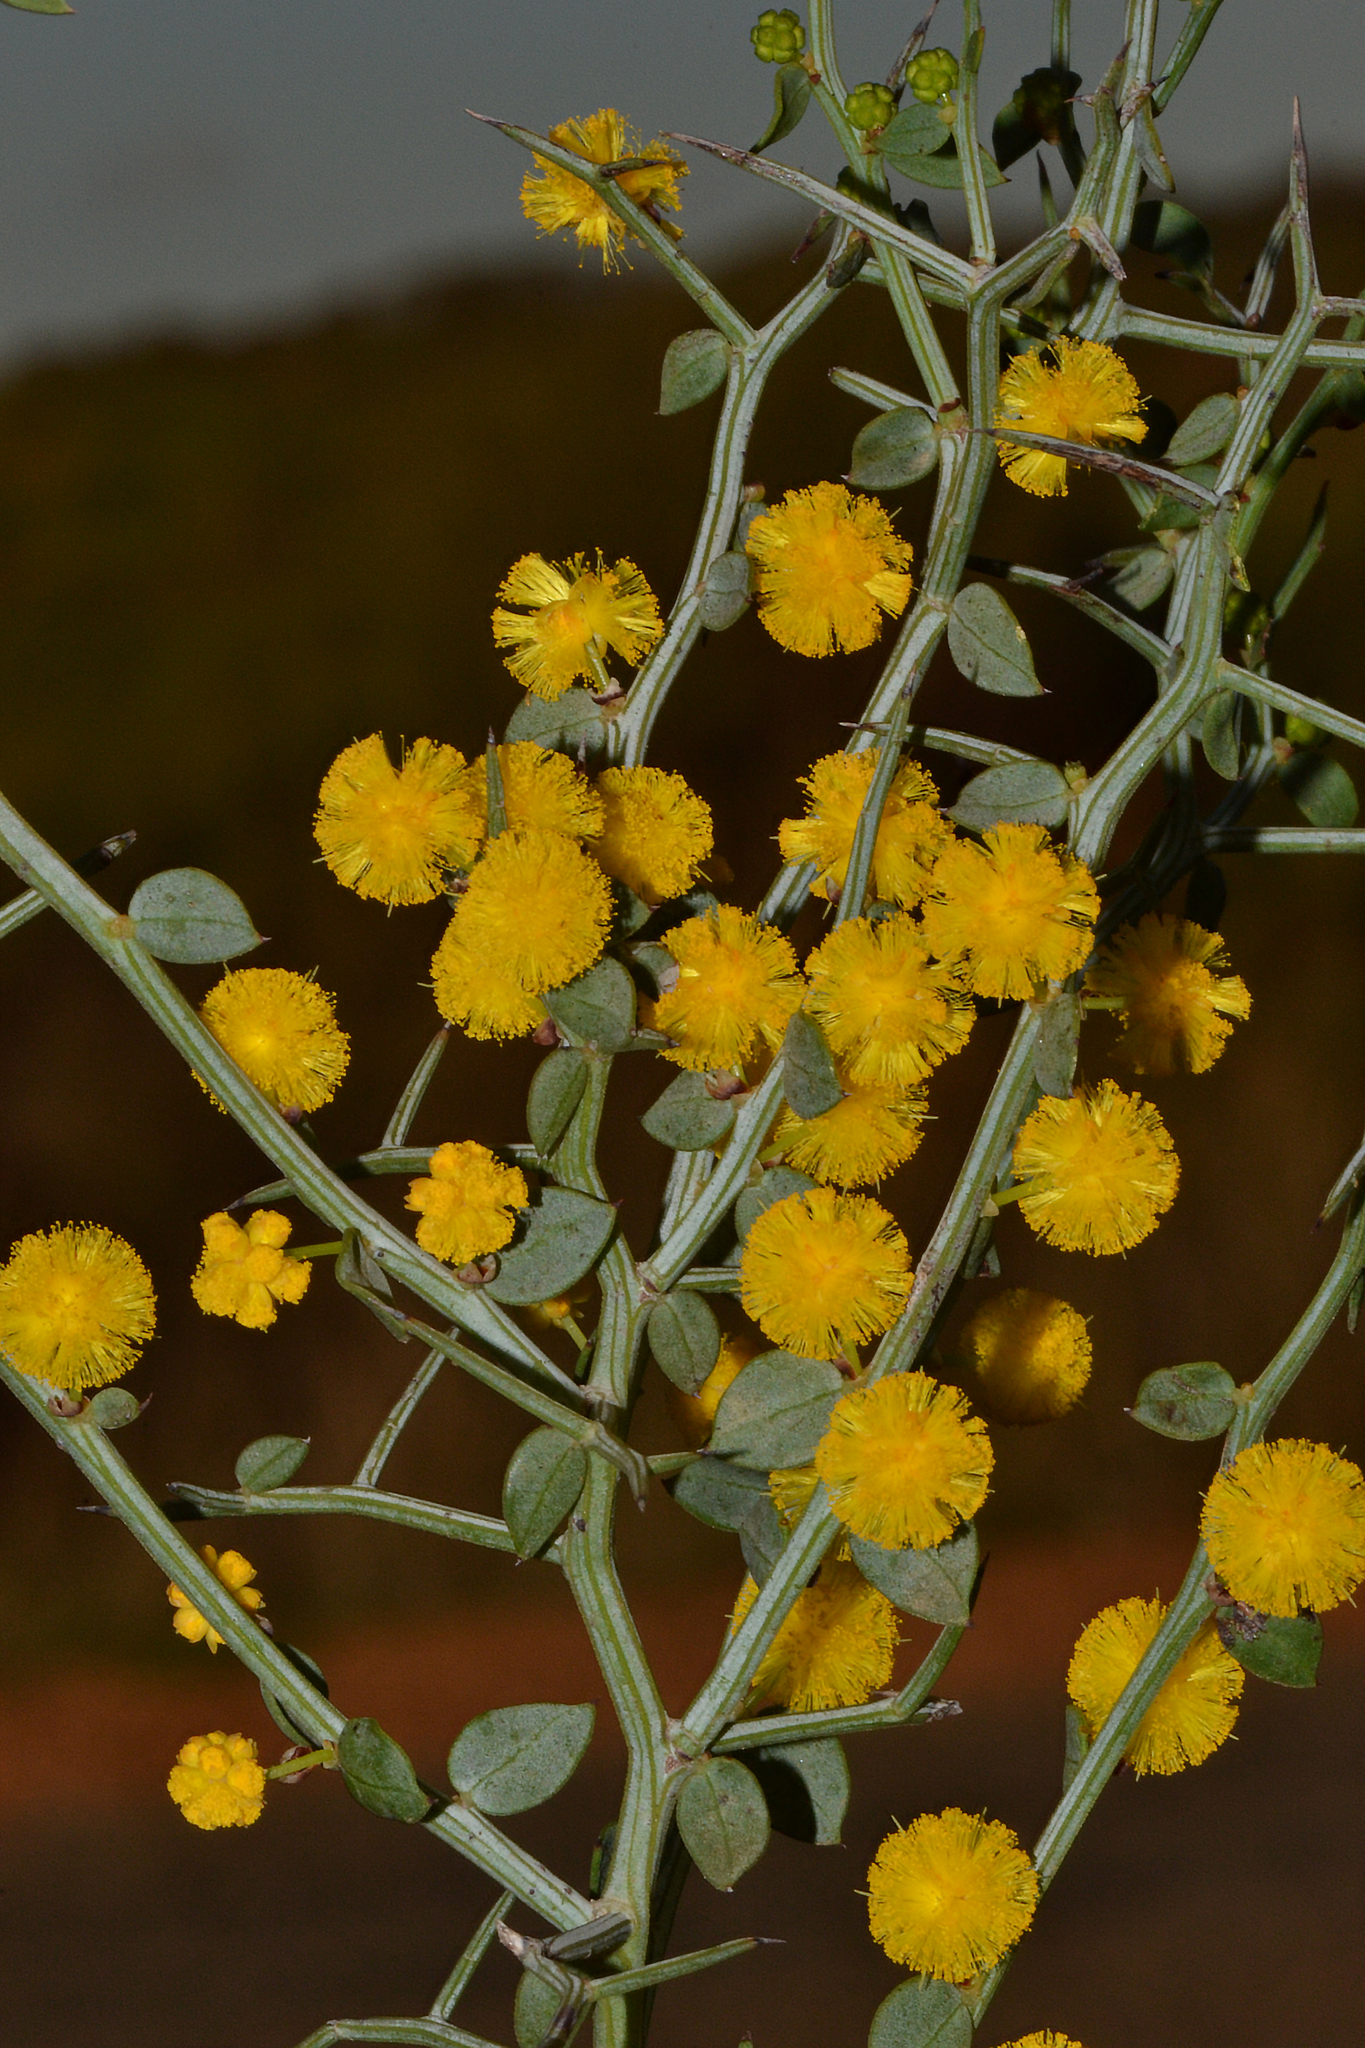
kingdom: Plantae
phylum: Tracheophyta
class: Magnoliopsida
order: Fabales
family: Fabaceae
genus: Acacia
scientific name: Acacia jacksonioides
